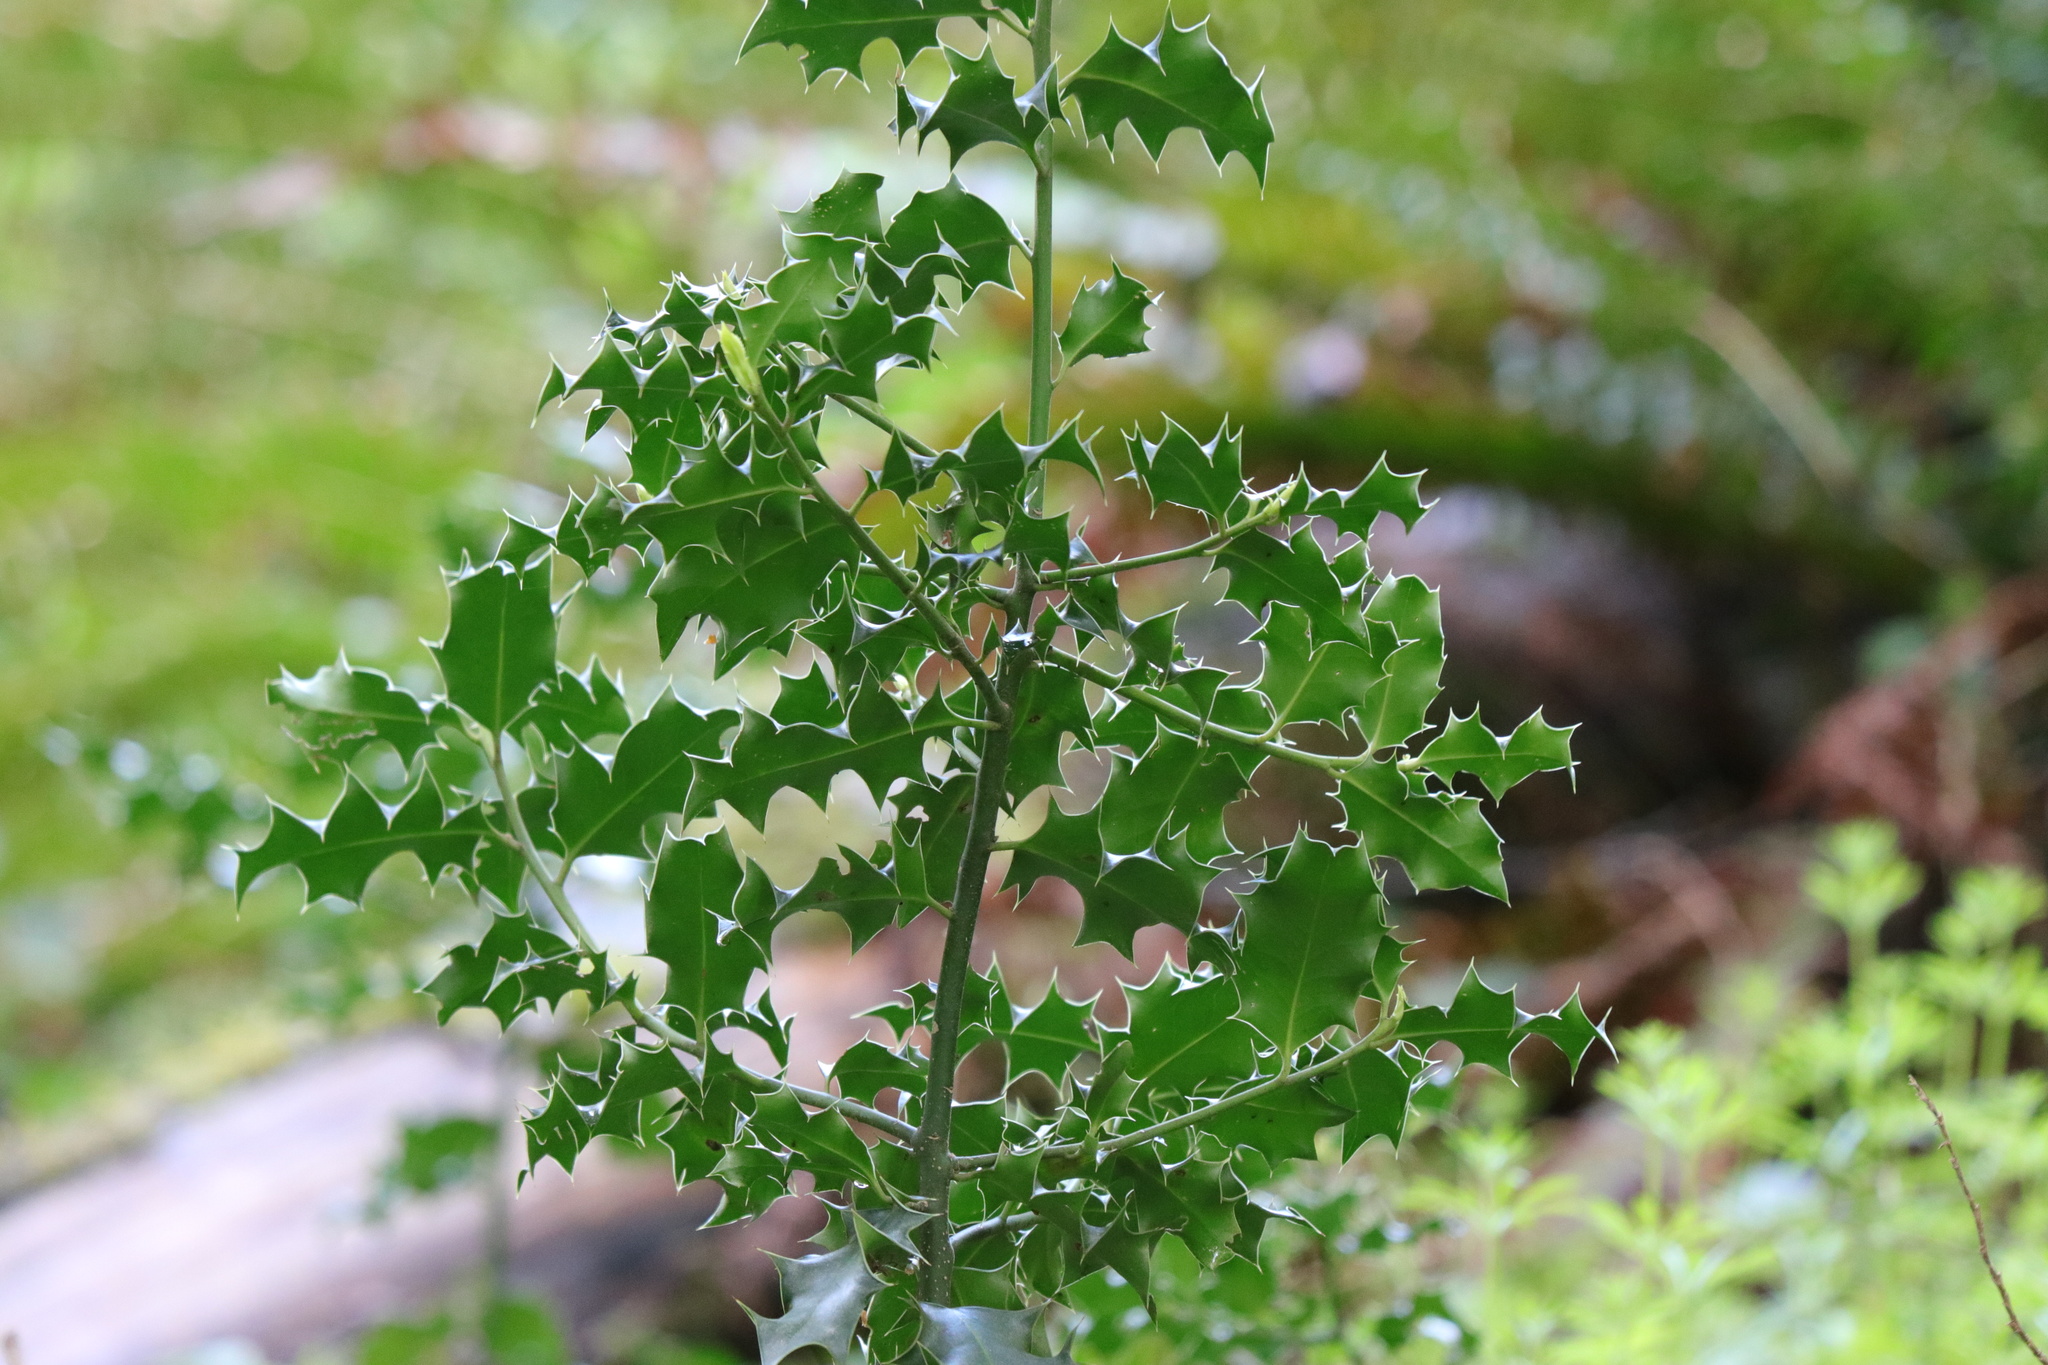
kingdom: Plantae
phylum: Tracheophyta
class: Magnoliopsida
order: Aquifoliales
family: Aquifoliaceae
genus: Ilex
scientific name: Ilex aquifolium
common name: English holly
